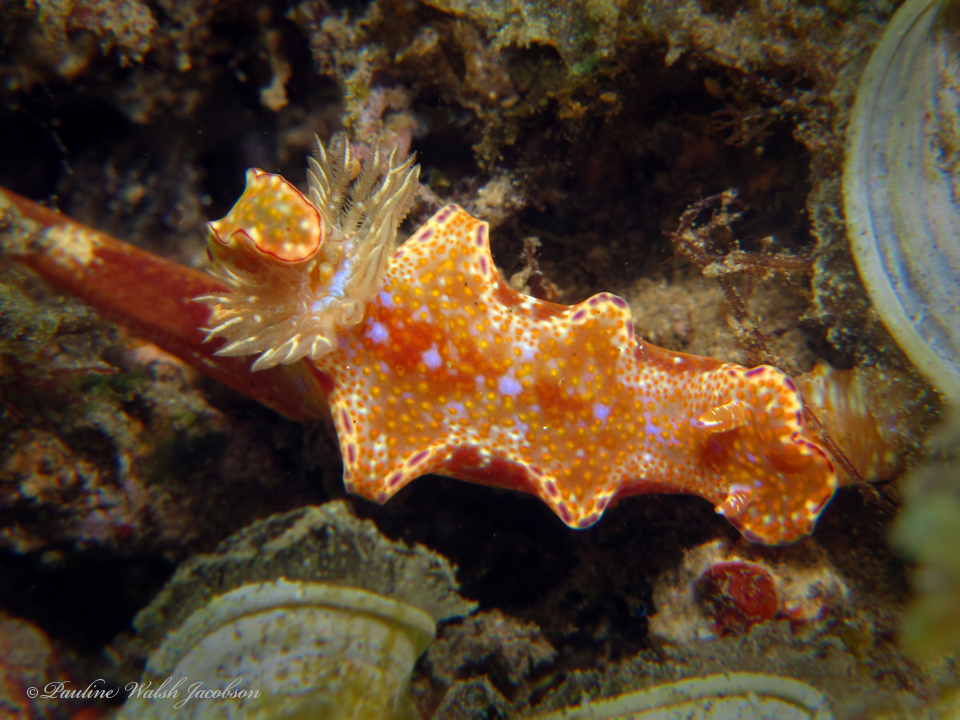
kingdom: Animalia
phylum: Mollusca
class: Gastropoda
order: Nudibranchia
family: Chromodorididae
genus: Ceratosoma
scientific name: Ceratosoma tenue
